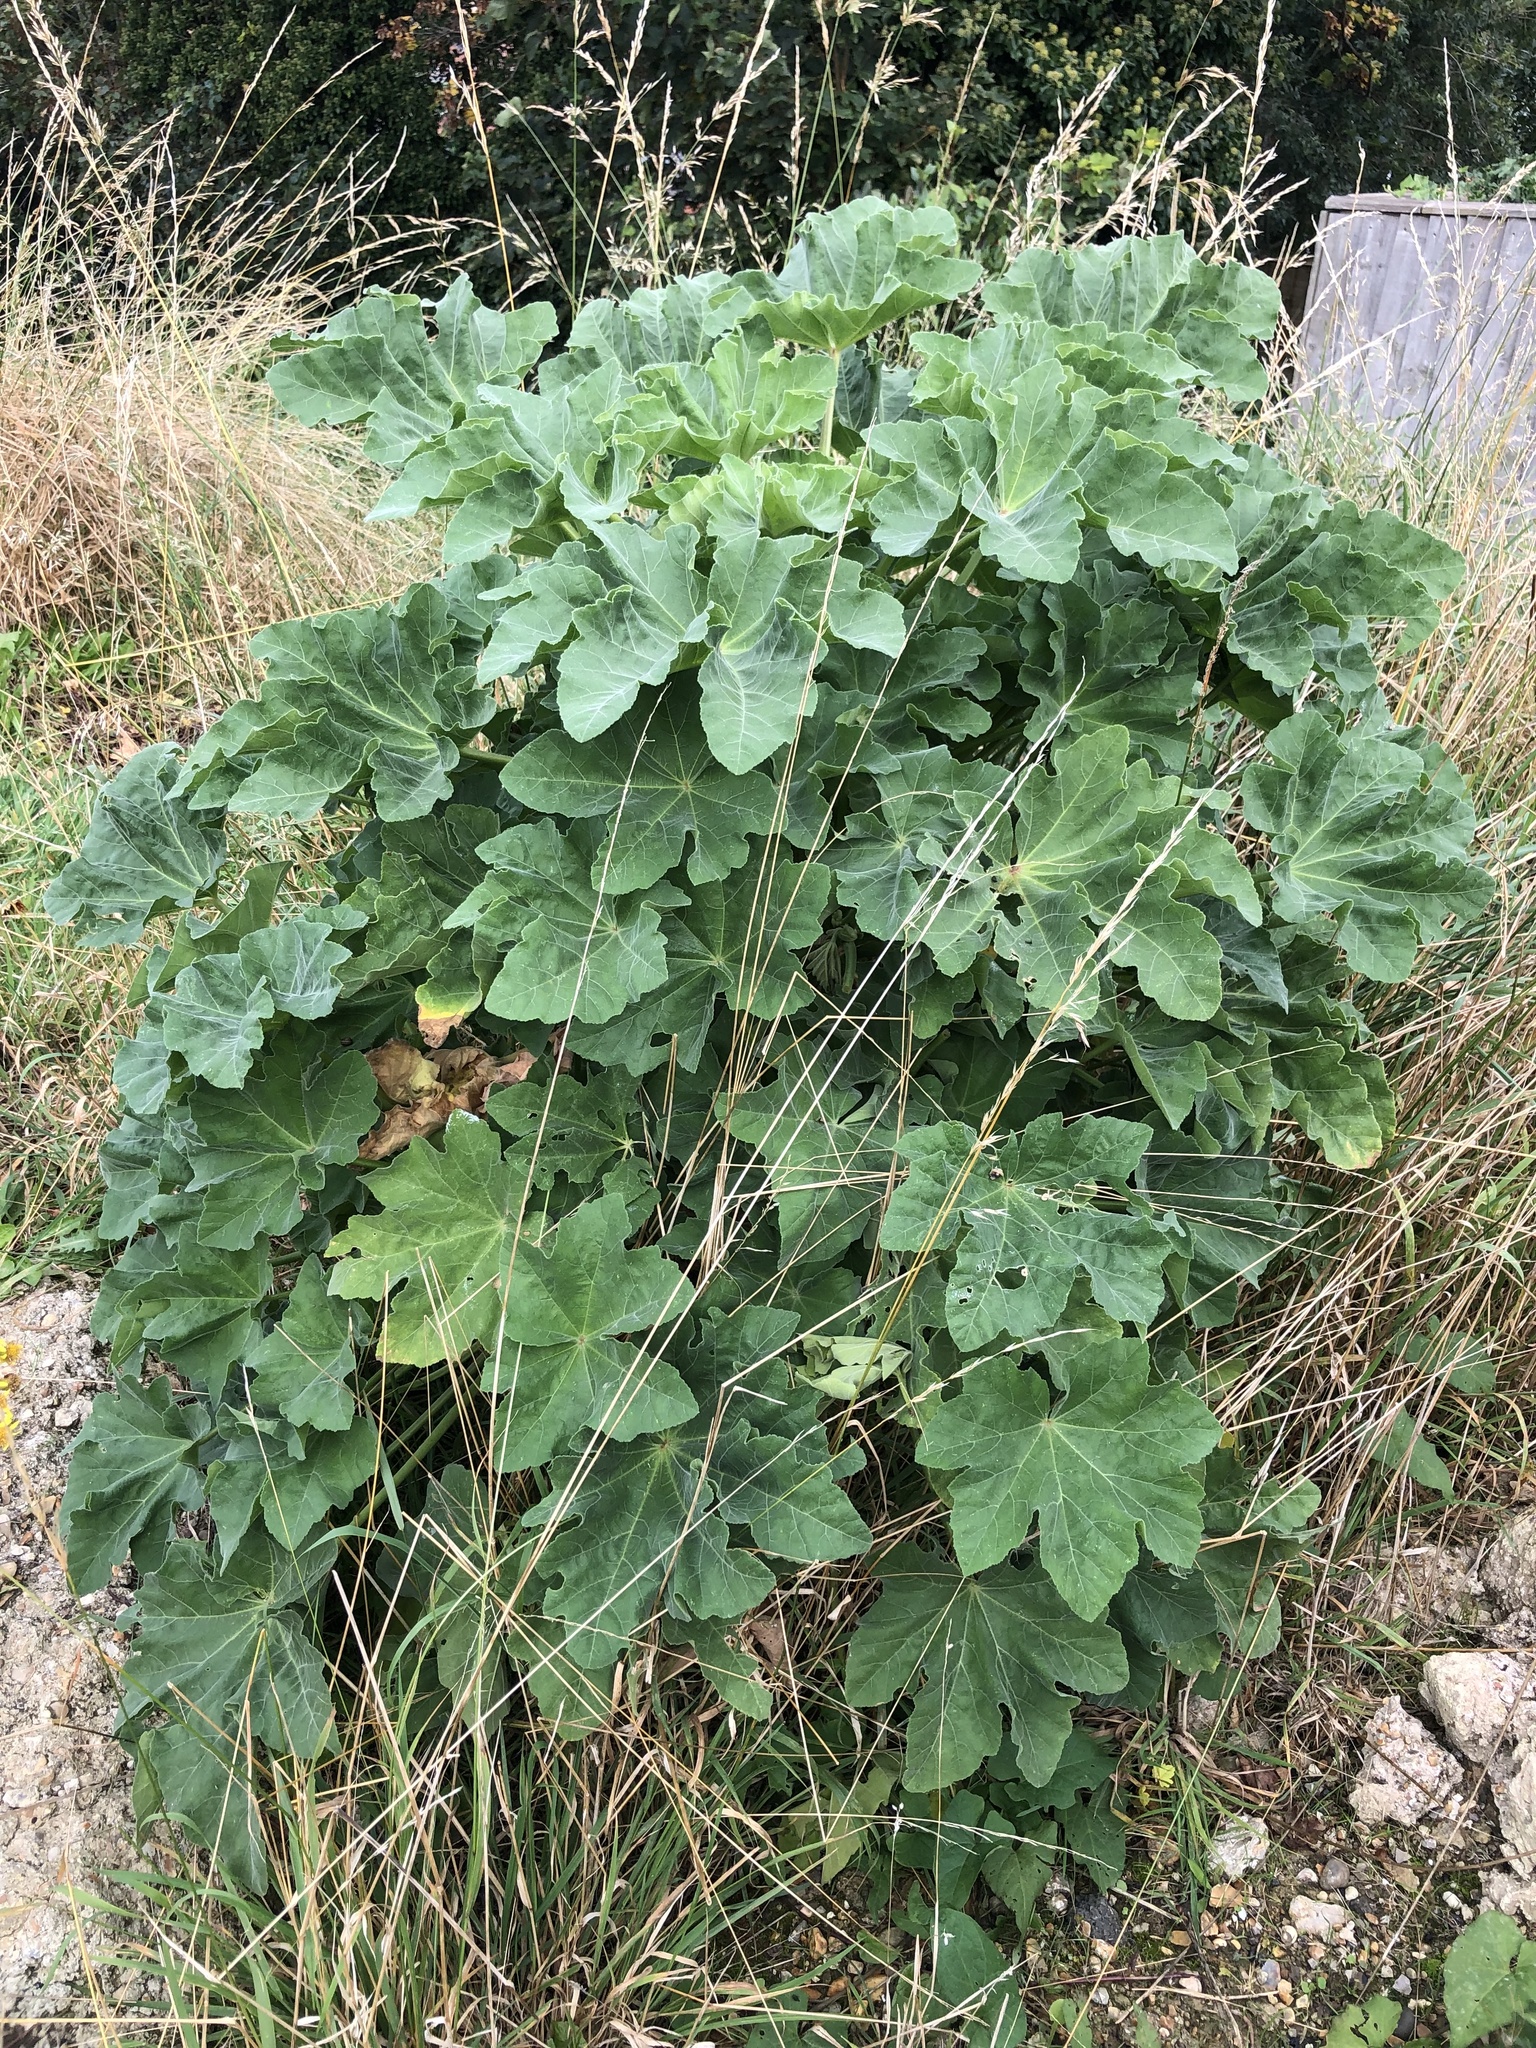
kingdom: Plantae
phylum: Tracheophyta
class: Magnoliopsida
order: Malvales
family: Malvaceae
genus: Malva
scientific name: Malva arborea
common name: Tree mallow
